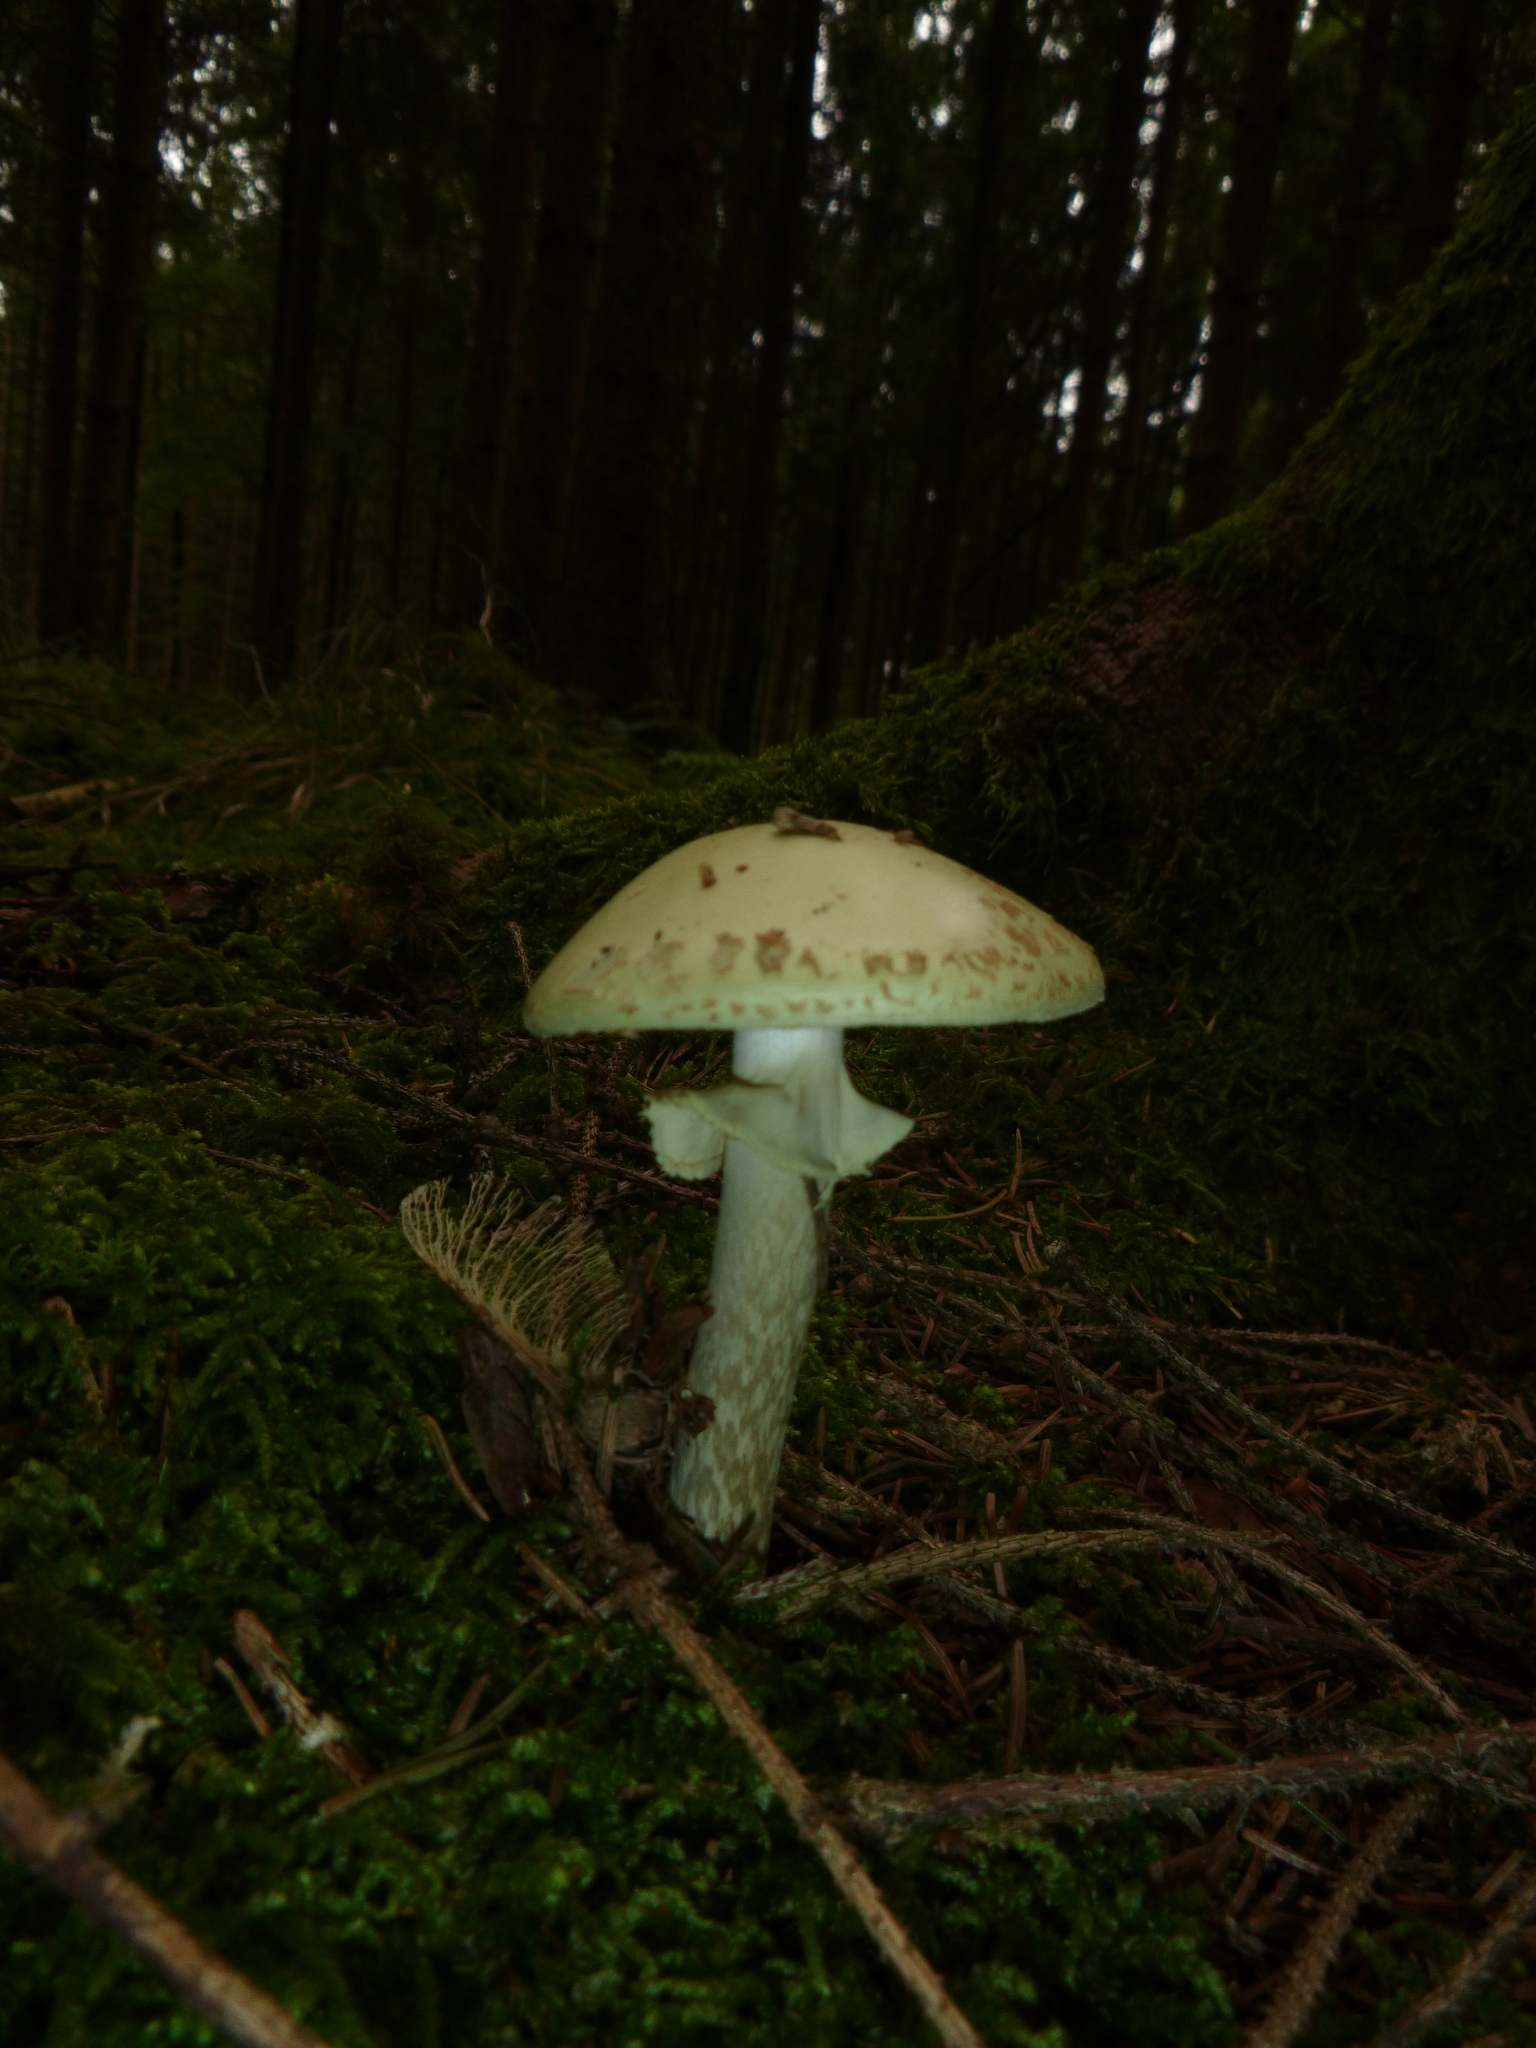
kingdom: Fungi
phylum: Basidiomycota
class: Agaricomycetes
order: Agaricales
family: Amanitaceae
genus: Amanita
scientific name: Amanita citrina
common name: False death-cap
